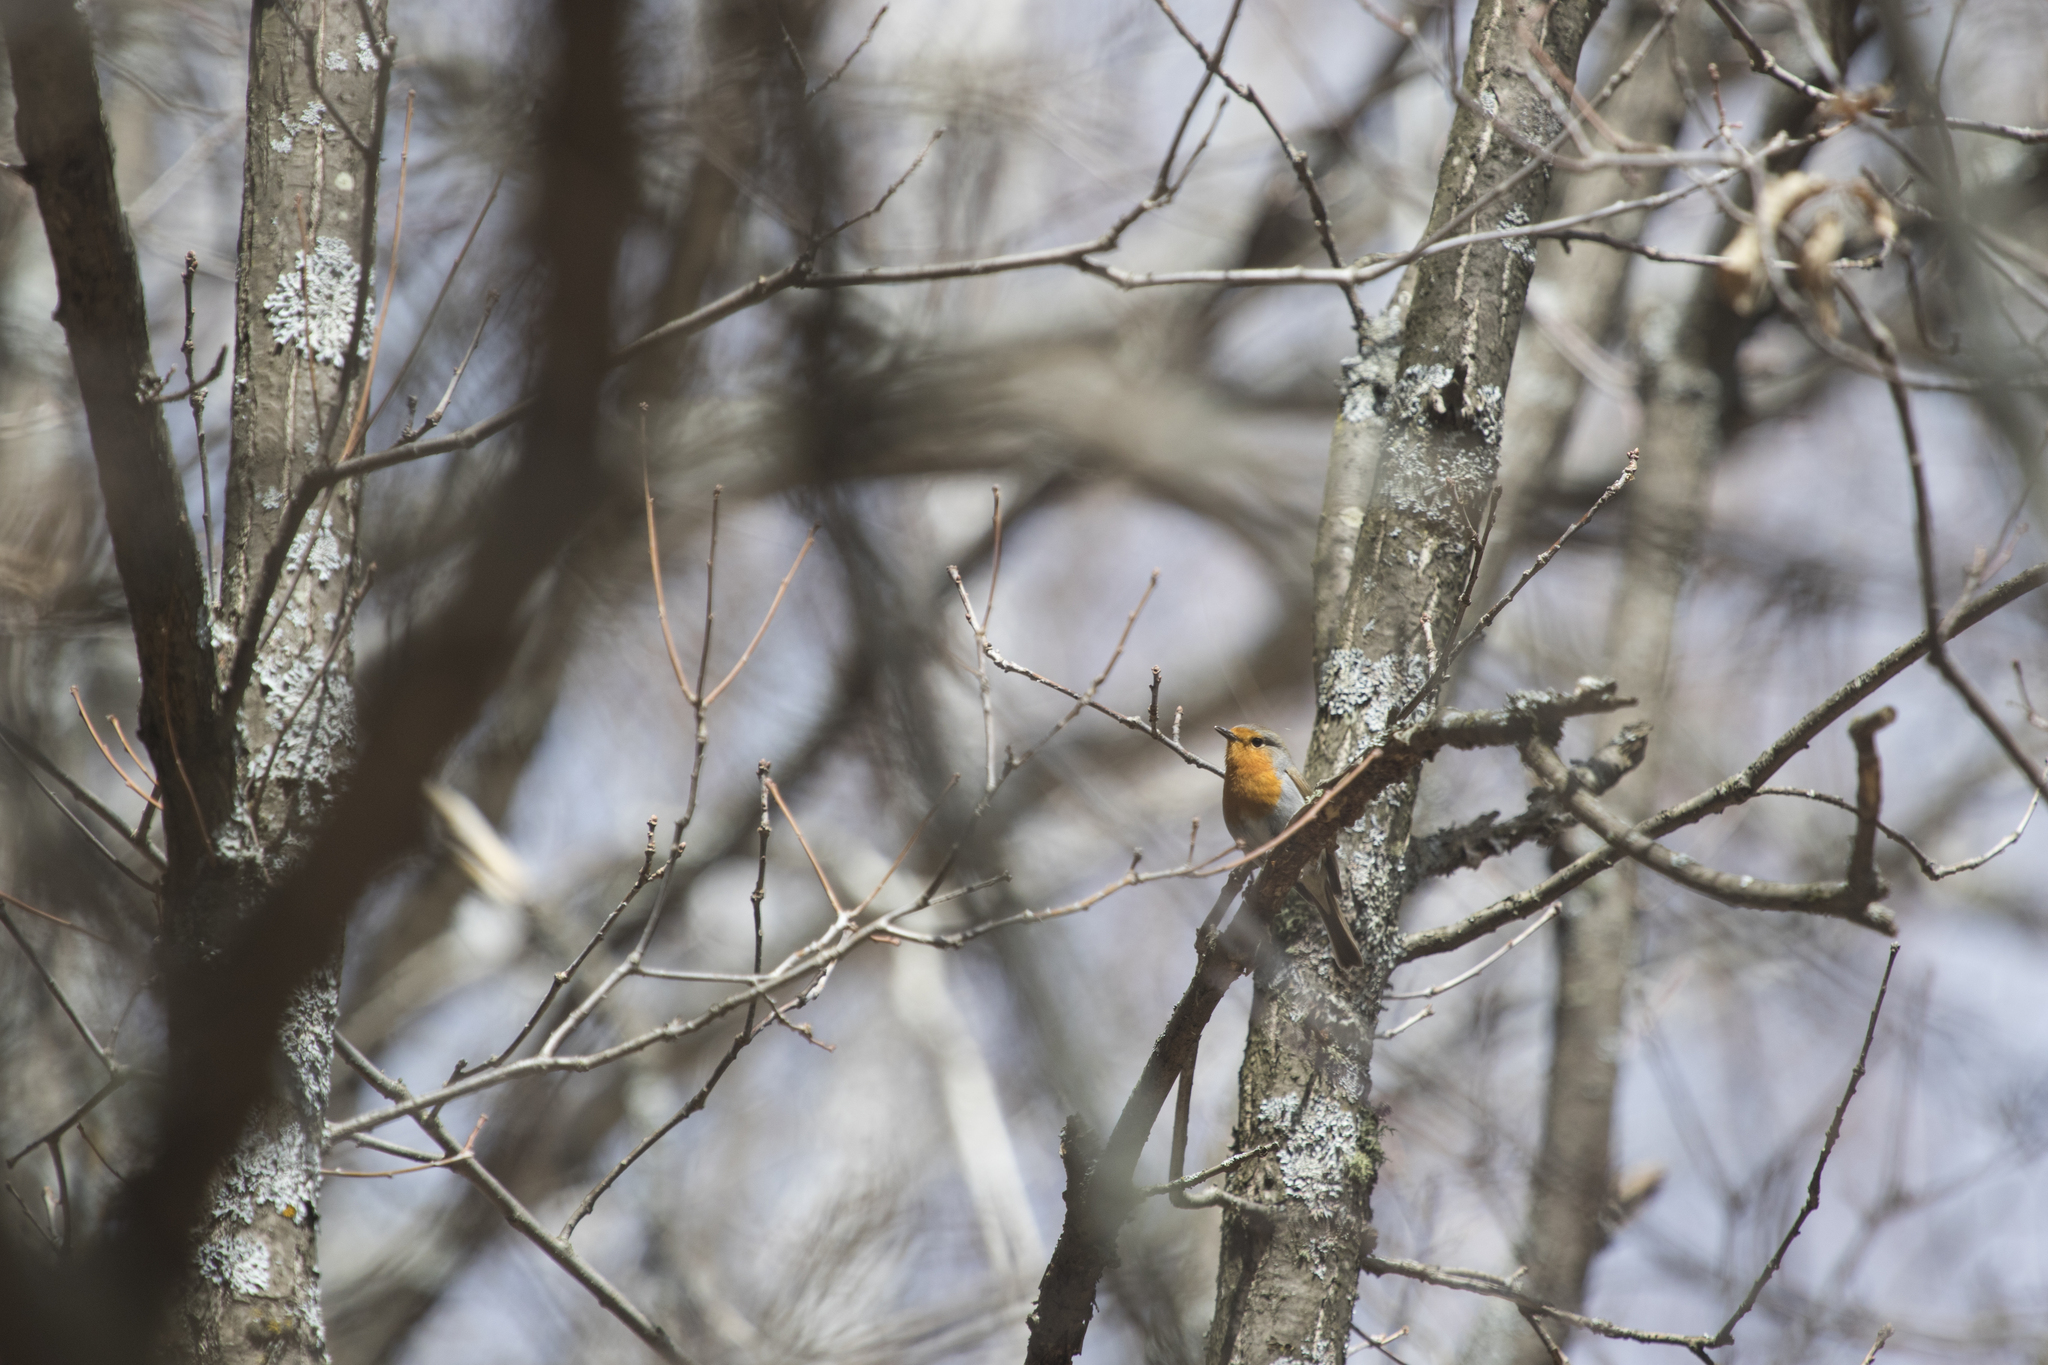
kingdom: Animalia
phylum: Chordata
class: Aves
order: Passeriformes
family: Muscicapidae
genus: Erithacus
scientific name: Erithacus rubecula
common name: European robin
